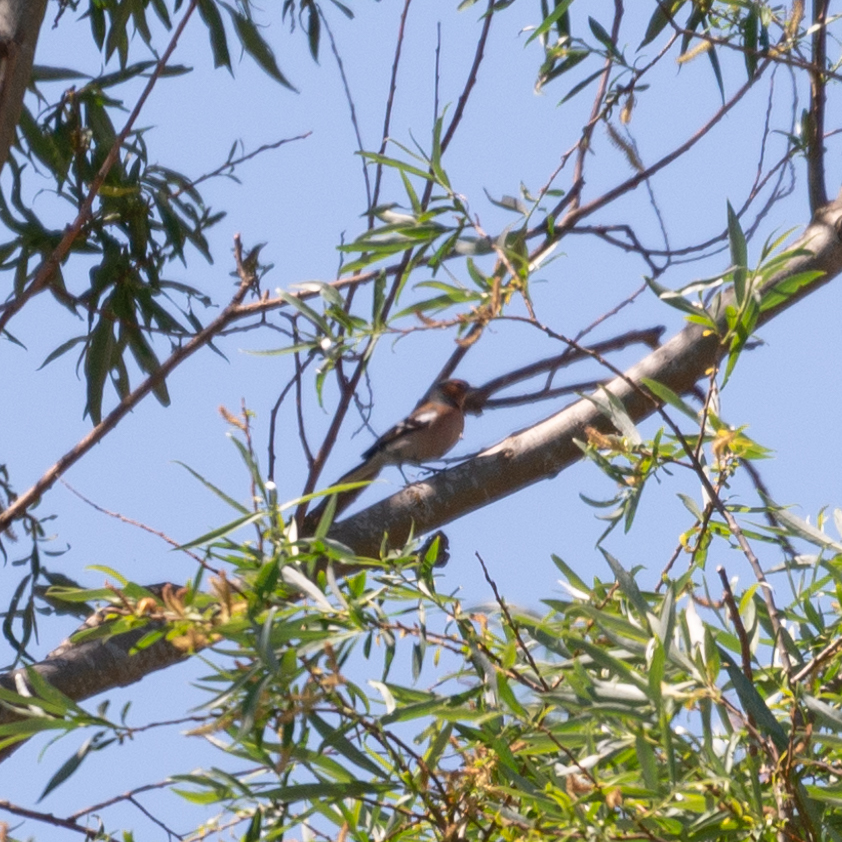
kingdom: Animalia
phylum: Chordata
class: Aves
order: Passeriformes
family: Fringillidae
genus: Fringilla
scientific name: Fringilla coelebs
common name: Common chaffinch
